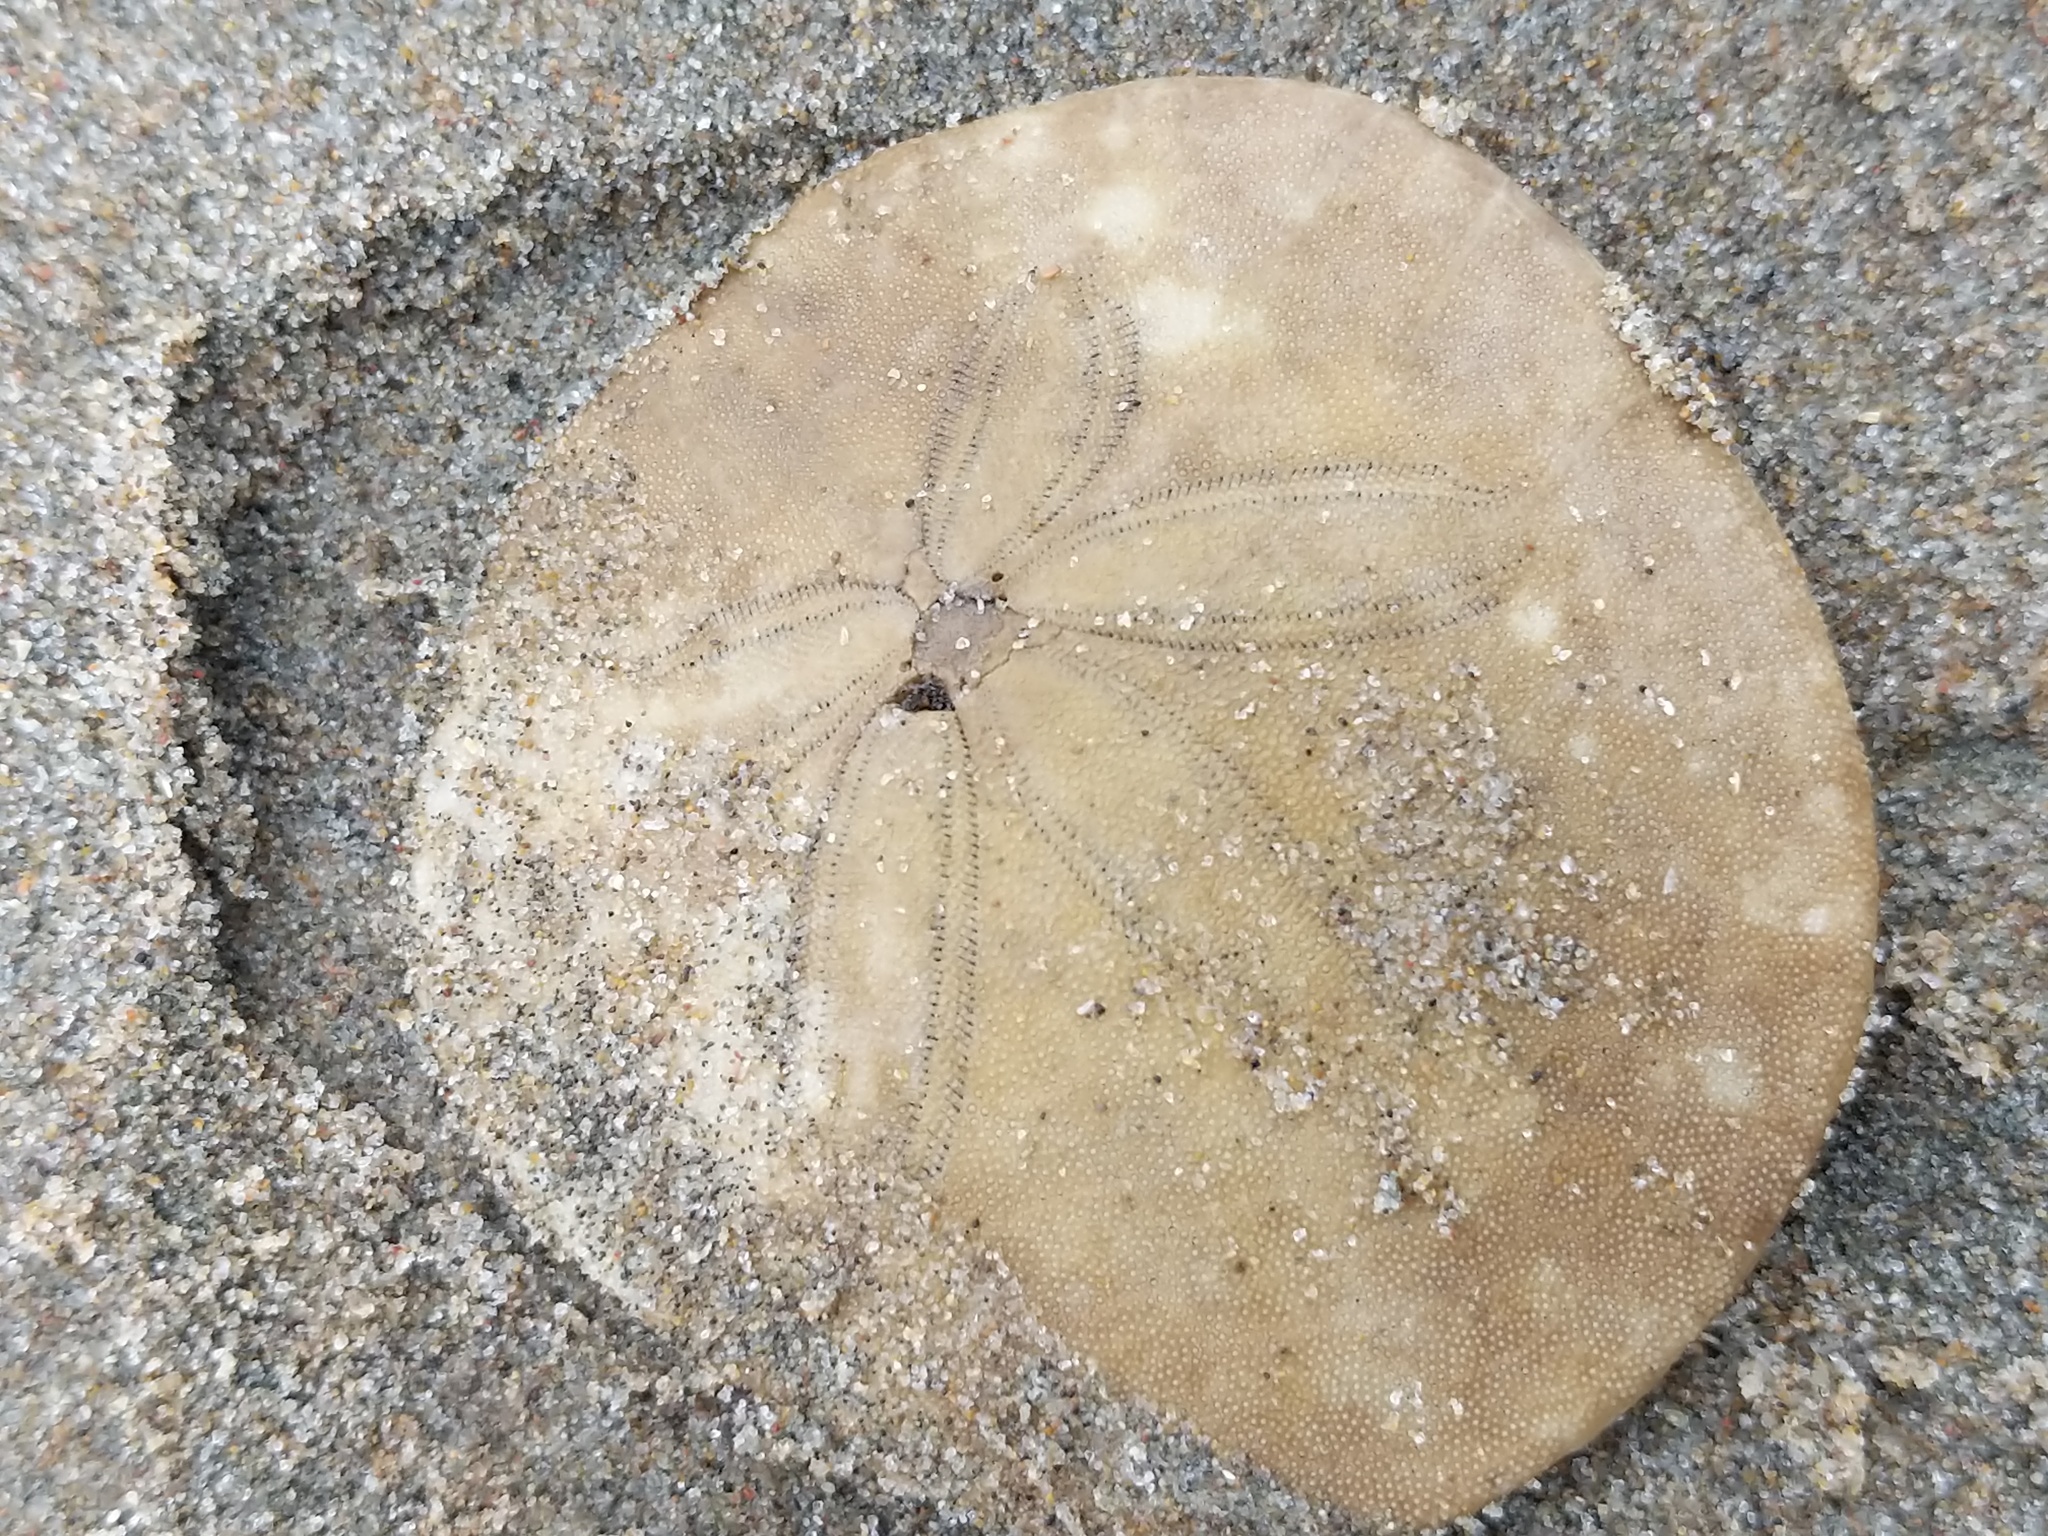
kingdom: Animalia
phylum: Echinodermata
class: Echinoidea
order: Echinolampadacea
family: Dendrasteridae
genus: Dendraster
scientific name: Dendraster excentricus
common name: Eccentric sand dollar sea urchin
